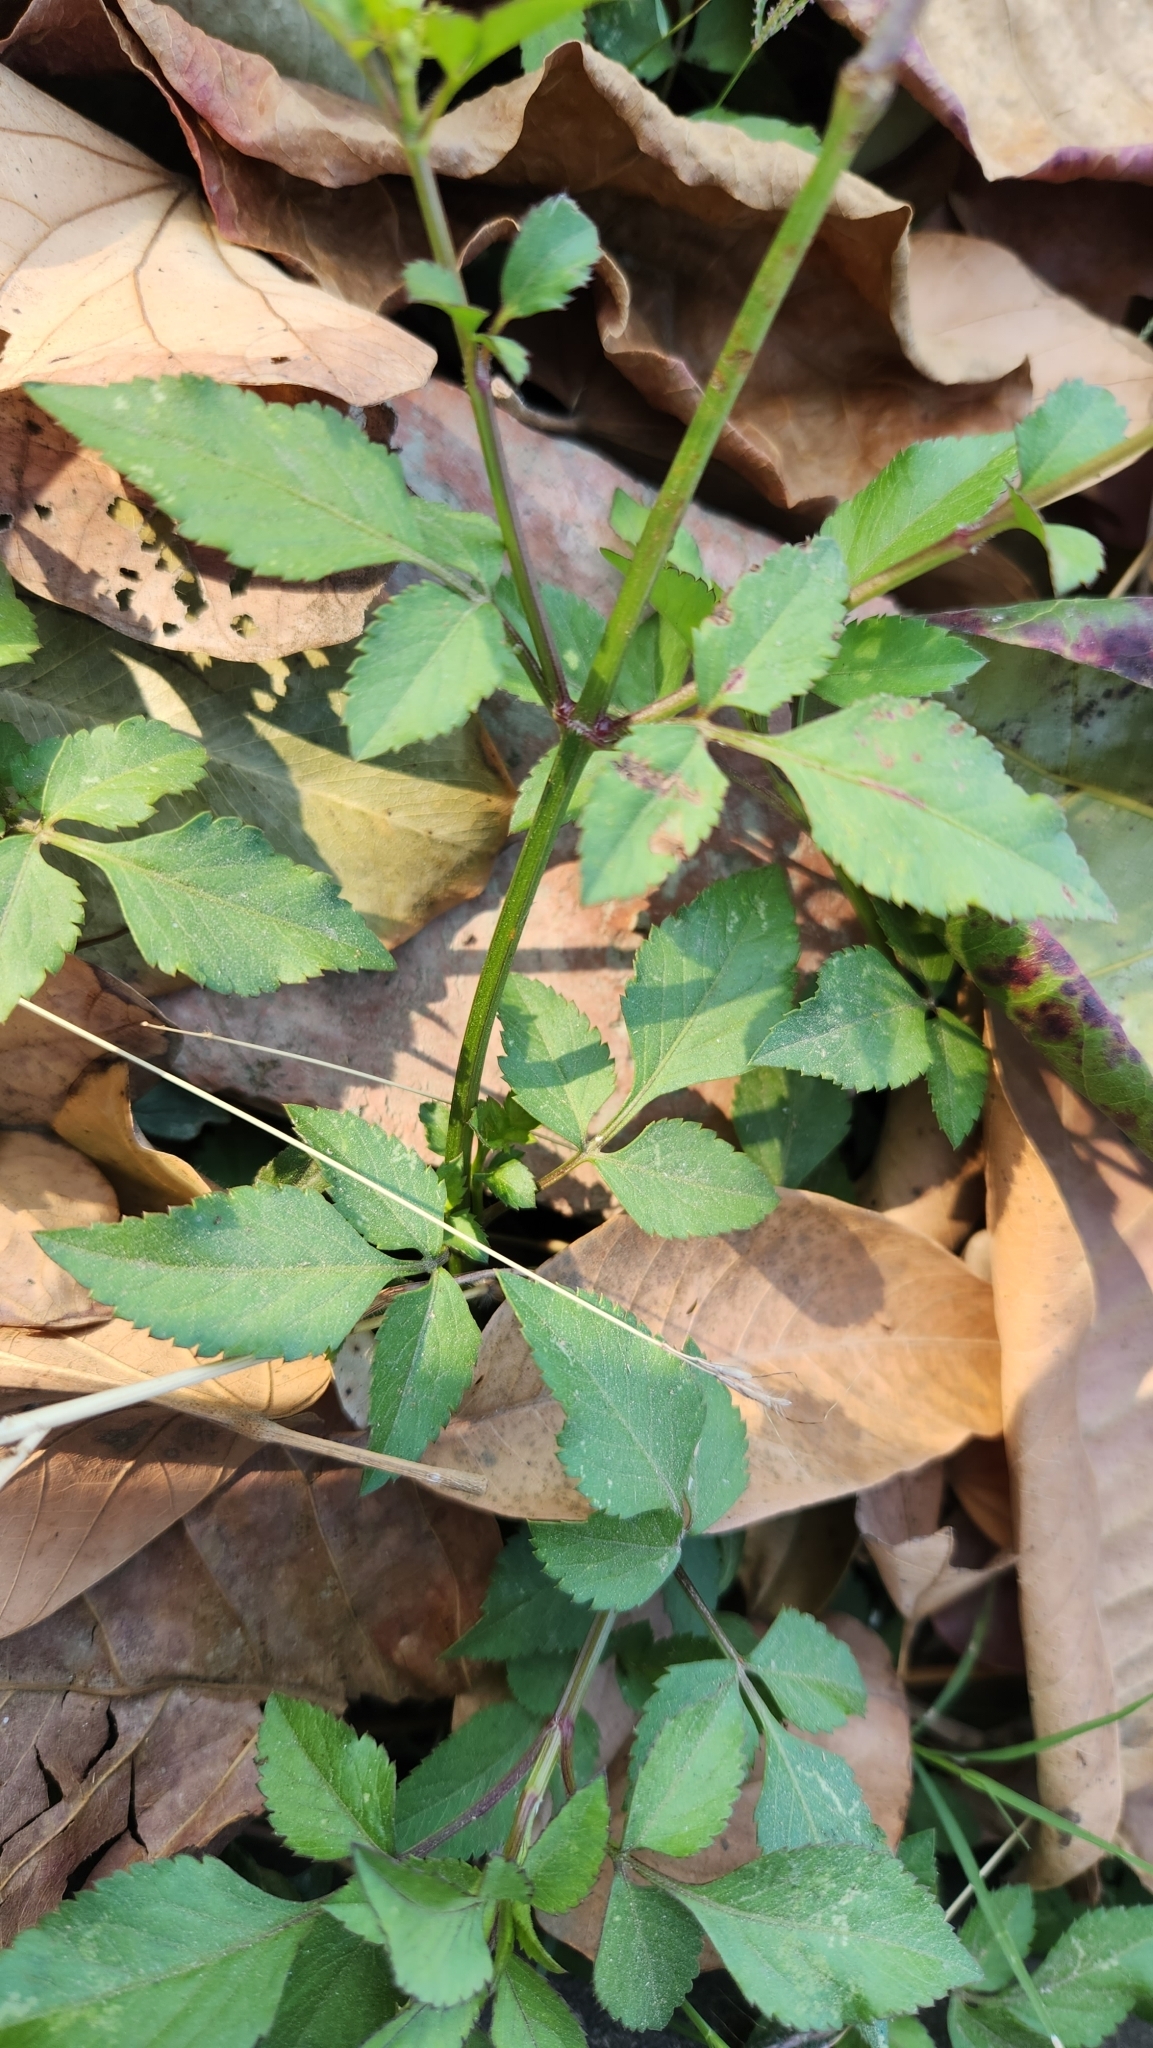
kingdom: Plantae
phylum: Tracheophyta
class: Magnoliopsida
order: Asterales
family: Asteraceae
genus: Bidens
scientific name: Bidens alba
